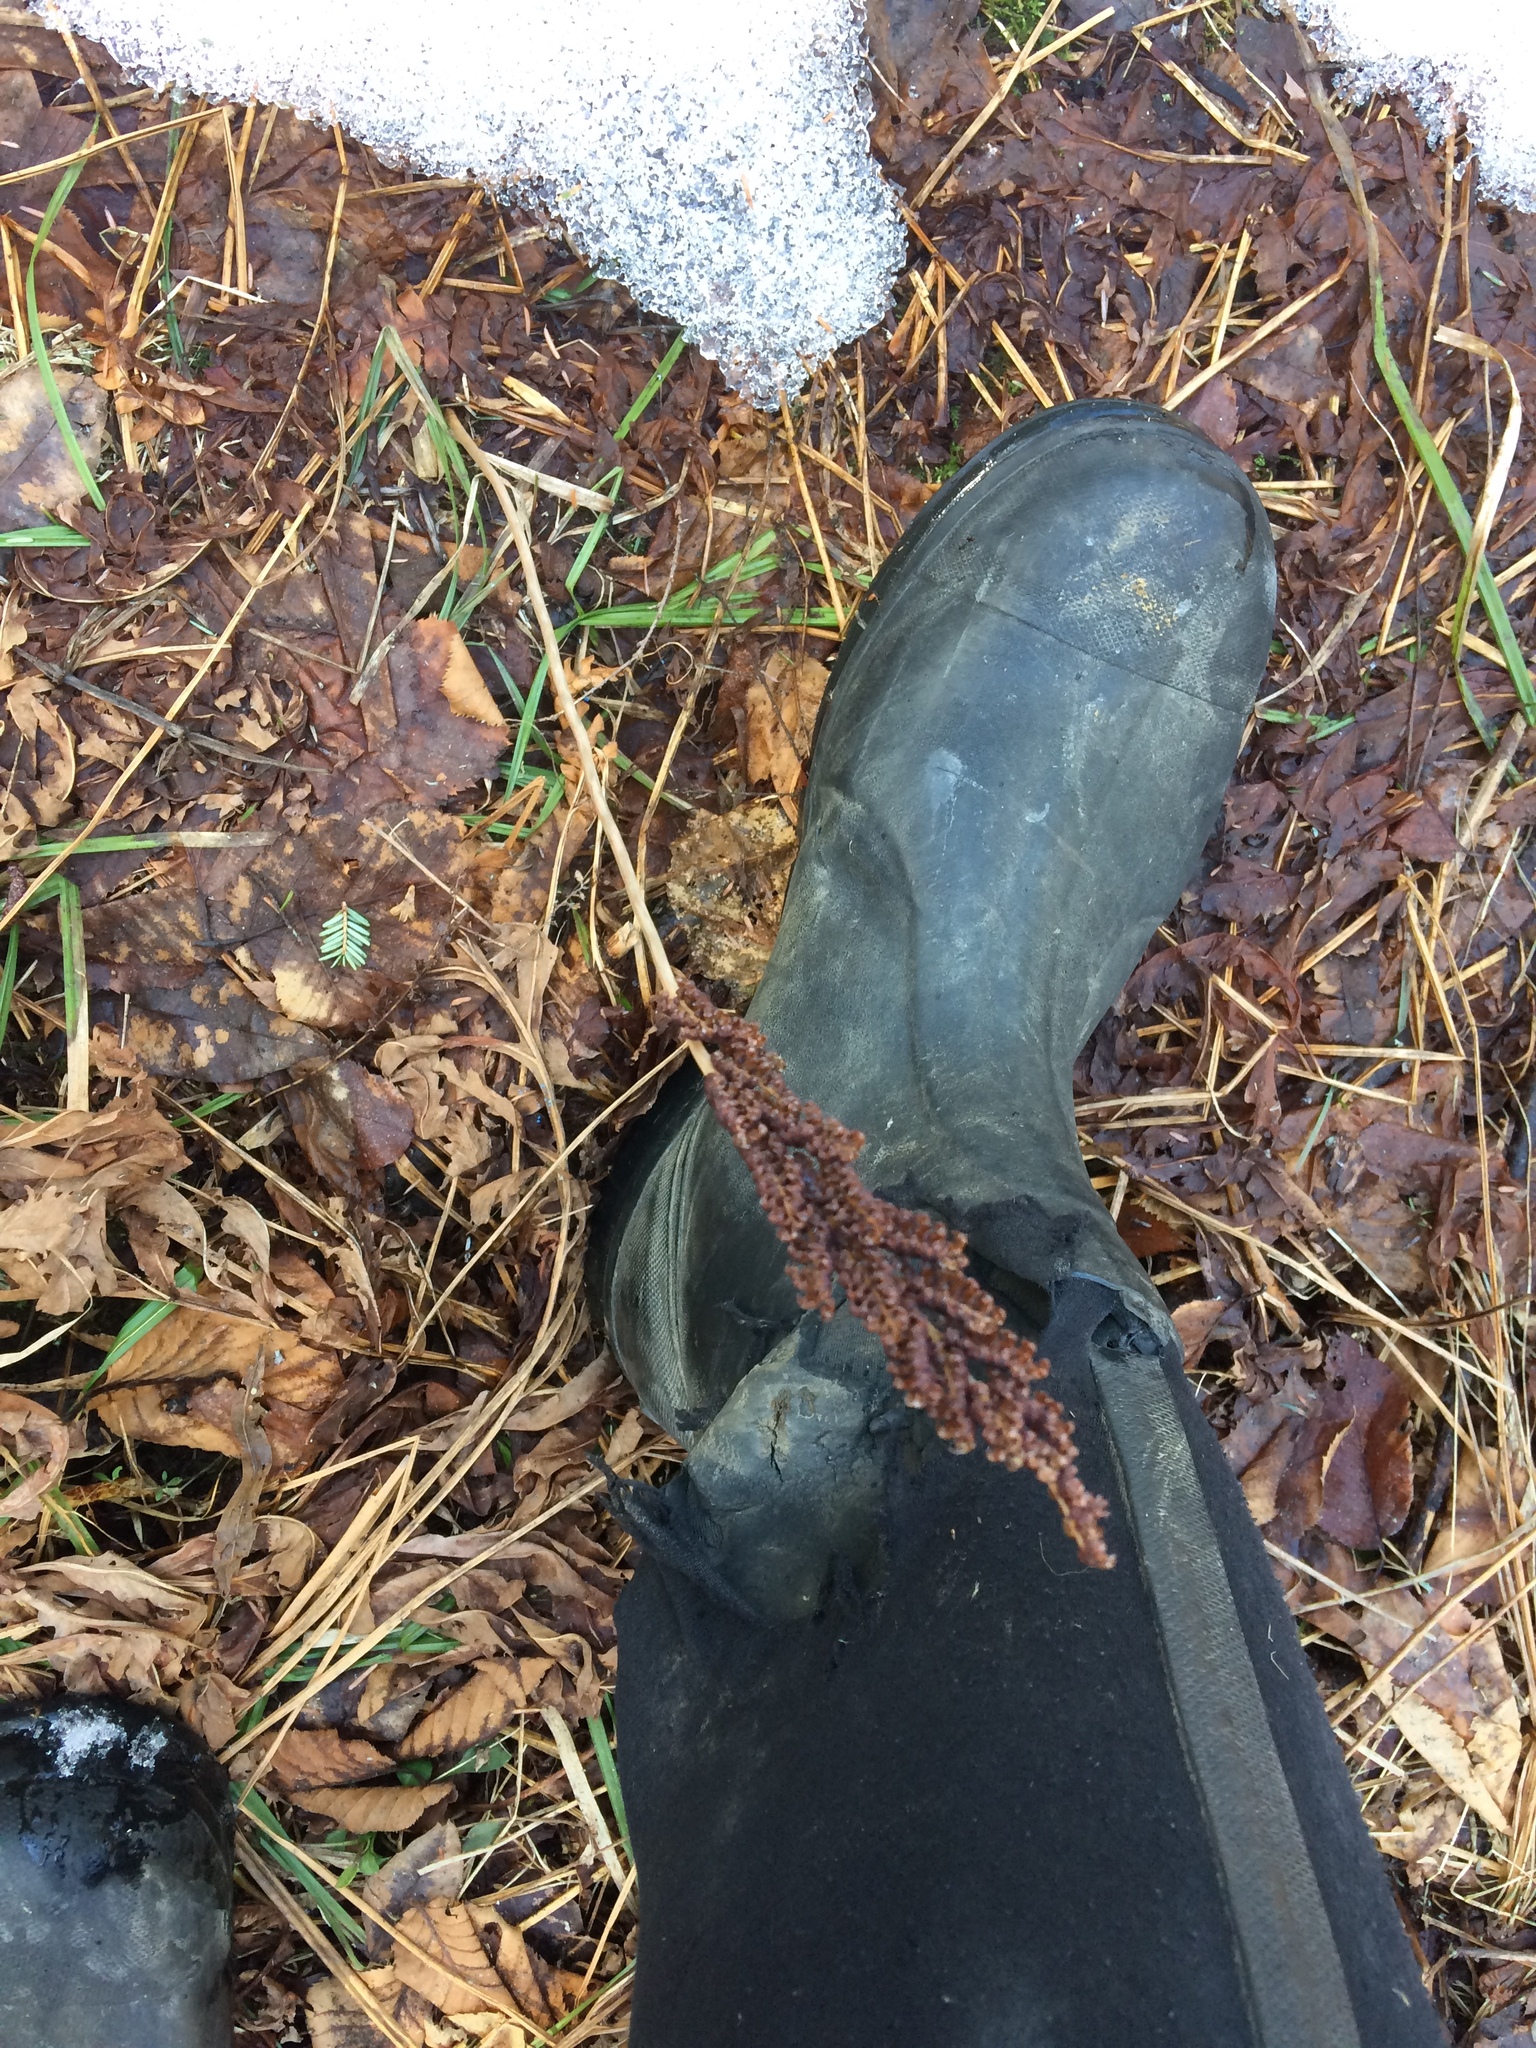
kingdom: Plantae
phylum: Tracheophyta
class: Polypodiopsida
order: Polypodiales
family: Onocleaceae
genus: Onoclea
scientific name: Onoclea sensibilis
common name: Sensitive fern
